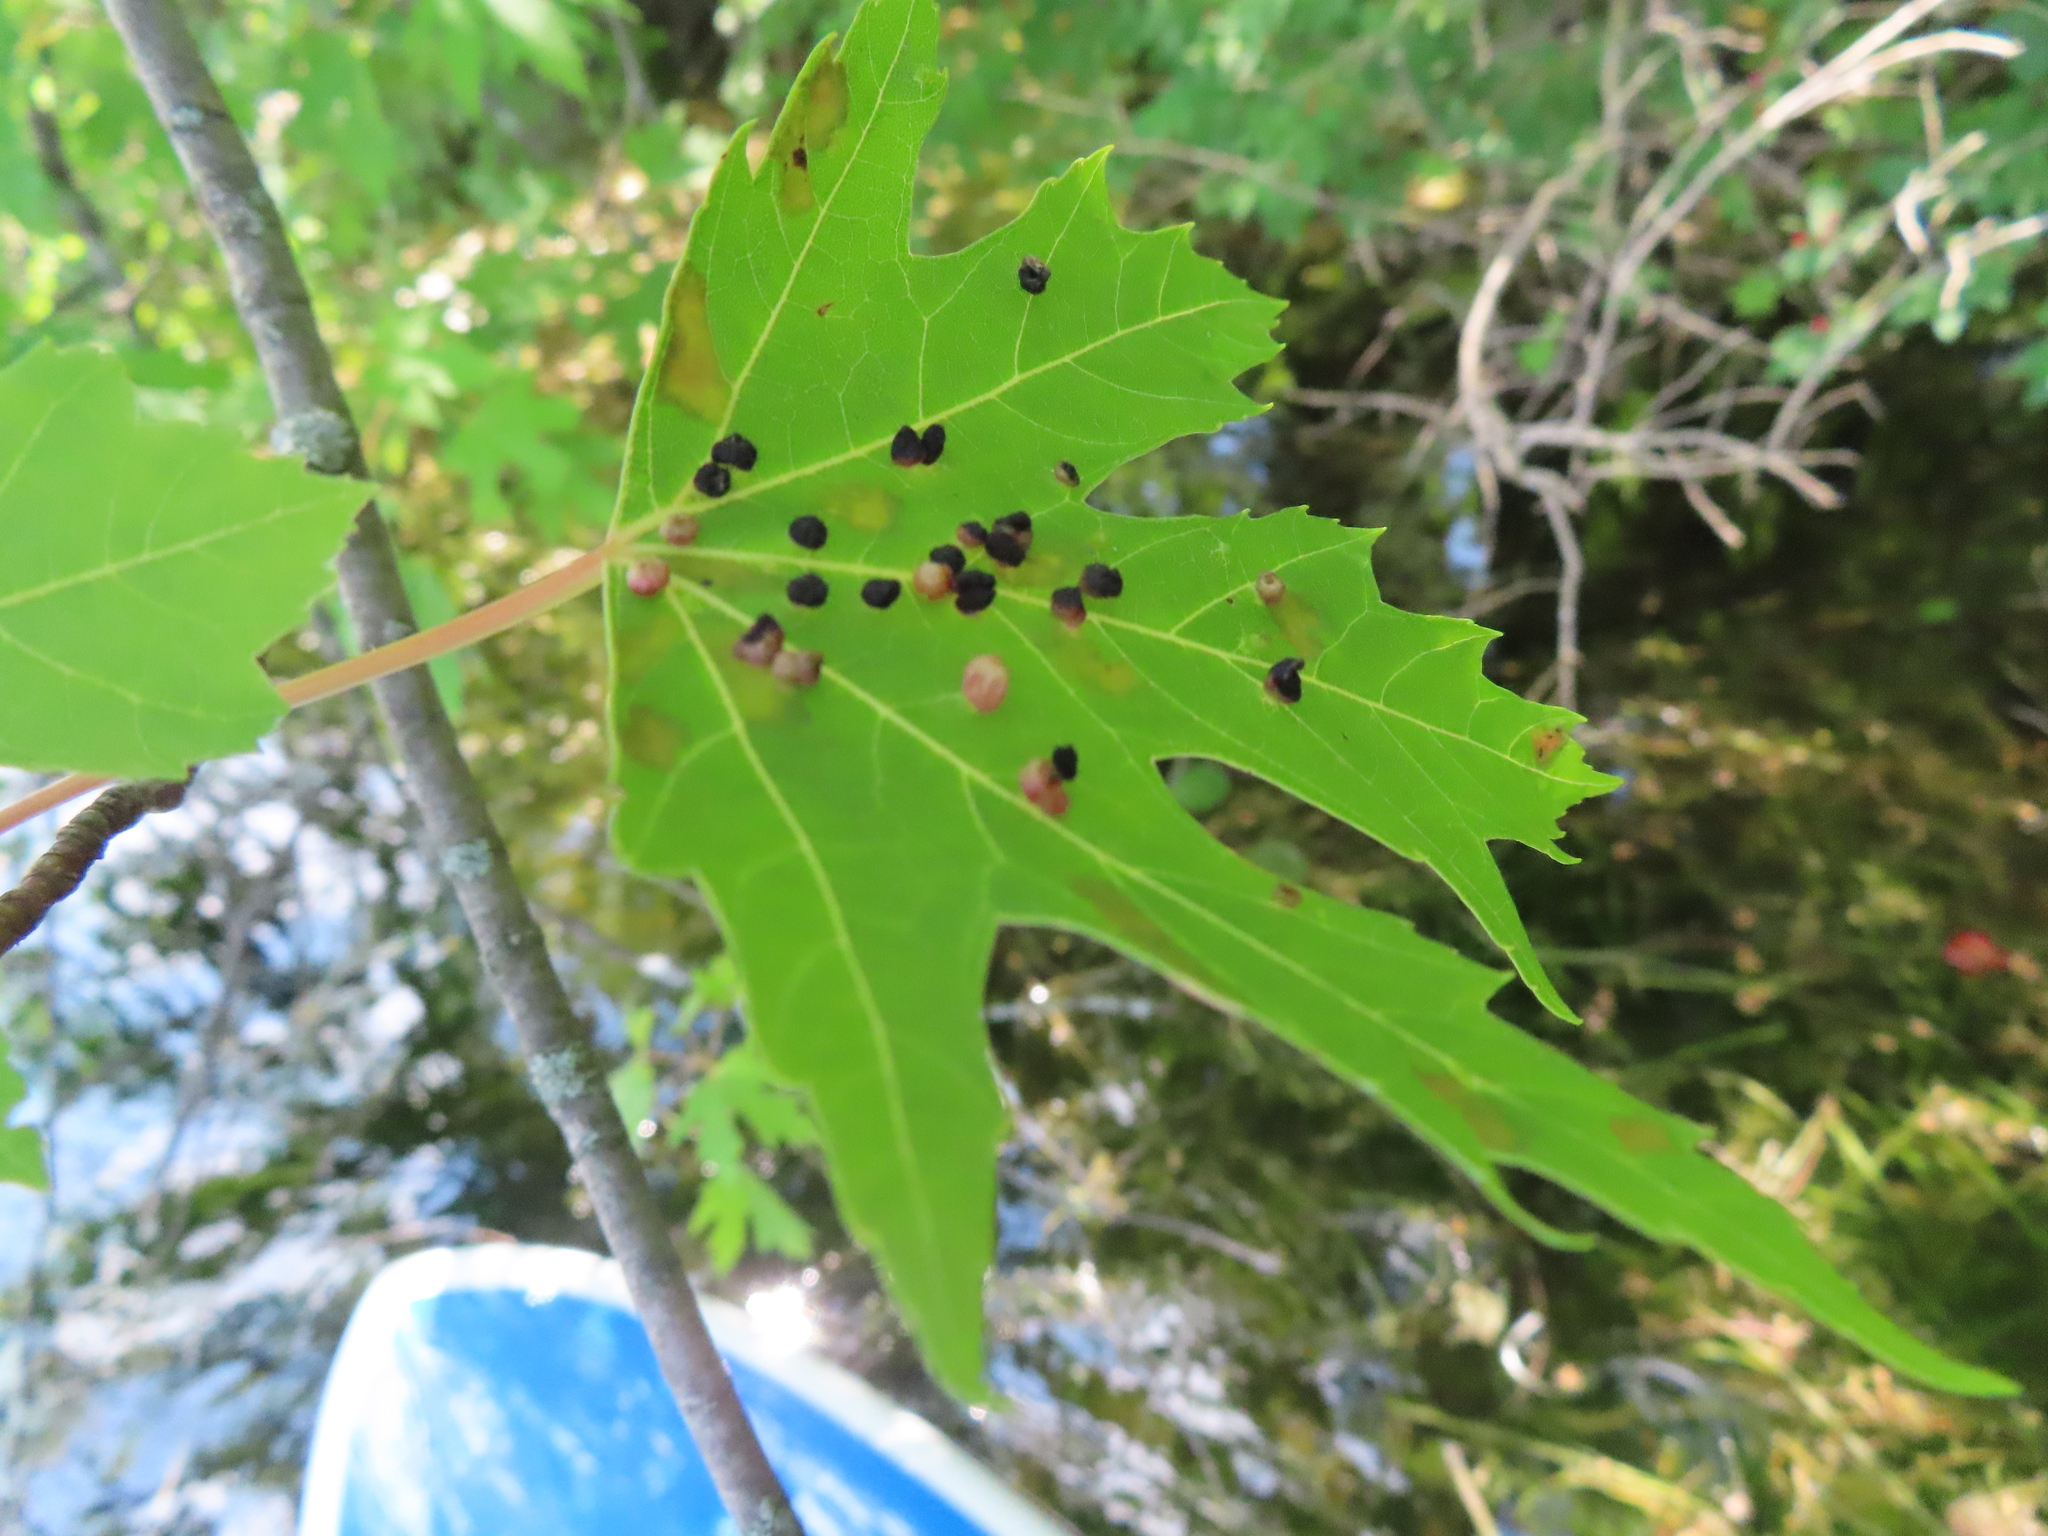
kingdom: Animalia
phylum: Arthropoda
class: Arachnida
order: Trombidiformes
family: Eriophyidae
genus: Vasates
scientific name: Vasates quadripedes
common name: Maple bladder gall mite
